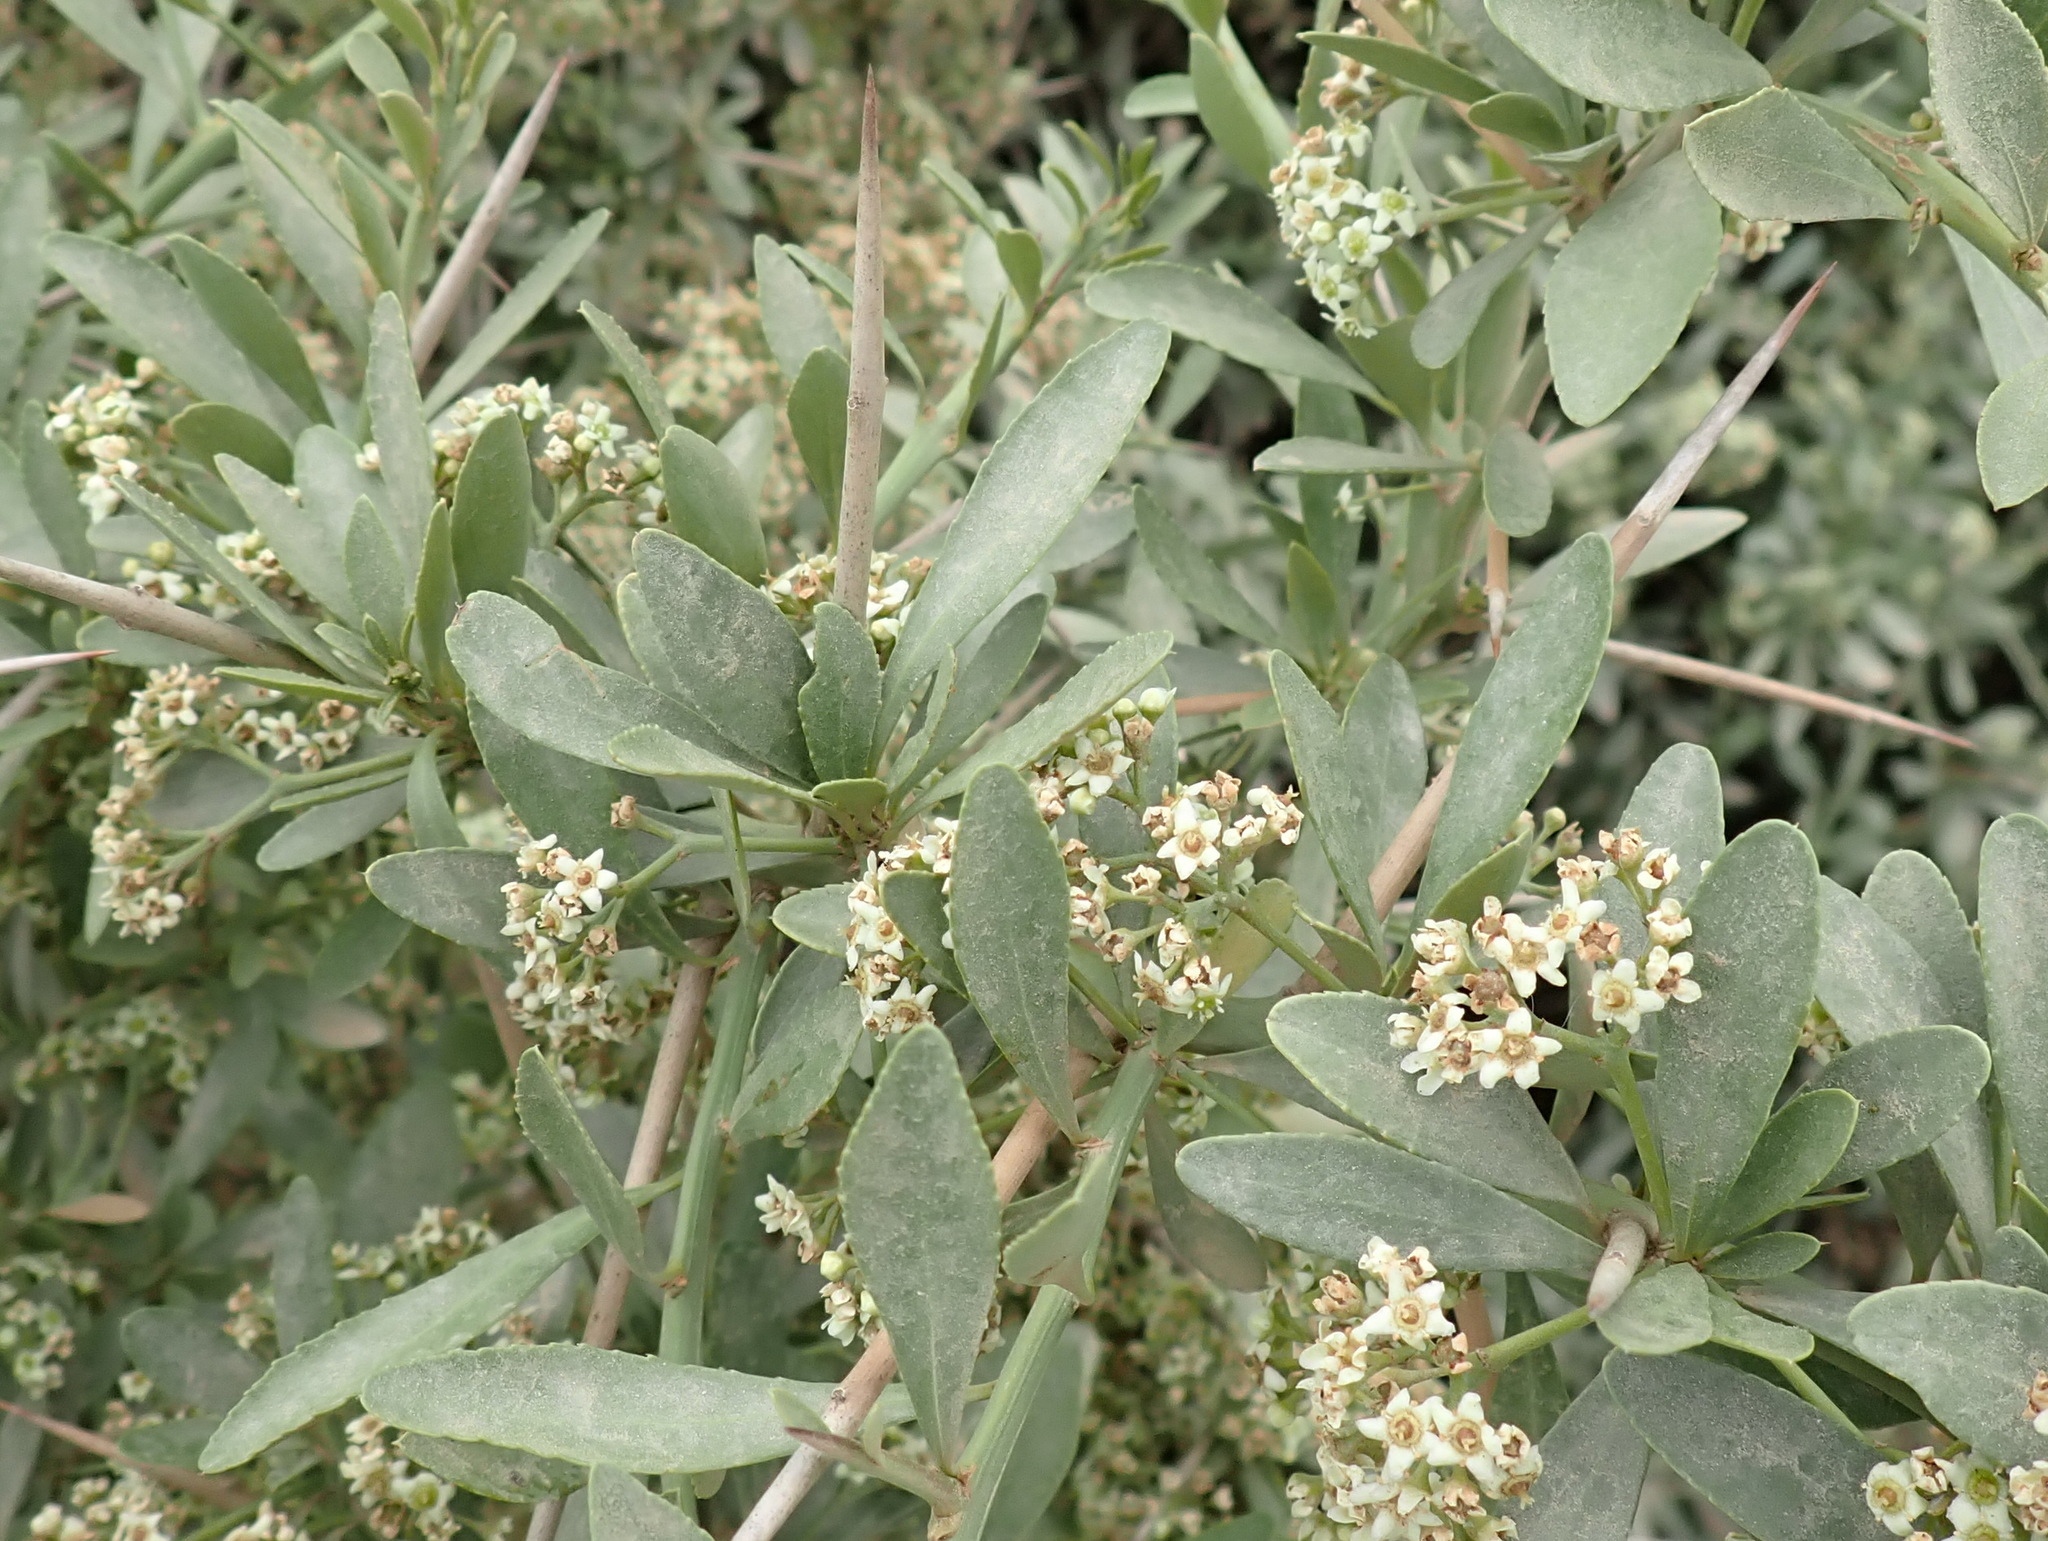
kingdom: Plantae
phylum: Tracheophyta
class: Magnoliopsida
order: Celastrales
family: Celastraceae
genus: Gymnosporia
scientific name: Gymnosporia buxifolia
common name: Common spike-thorn
